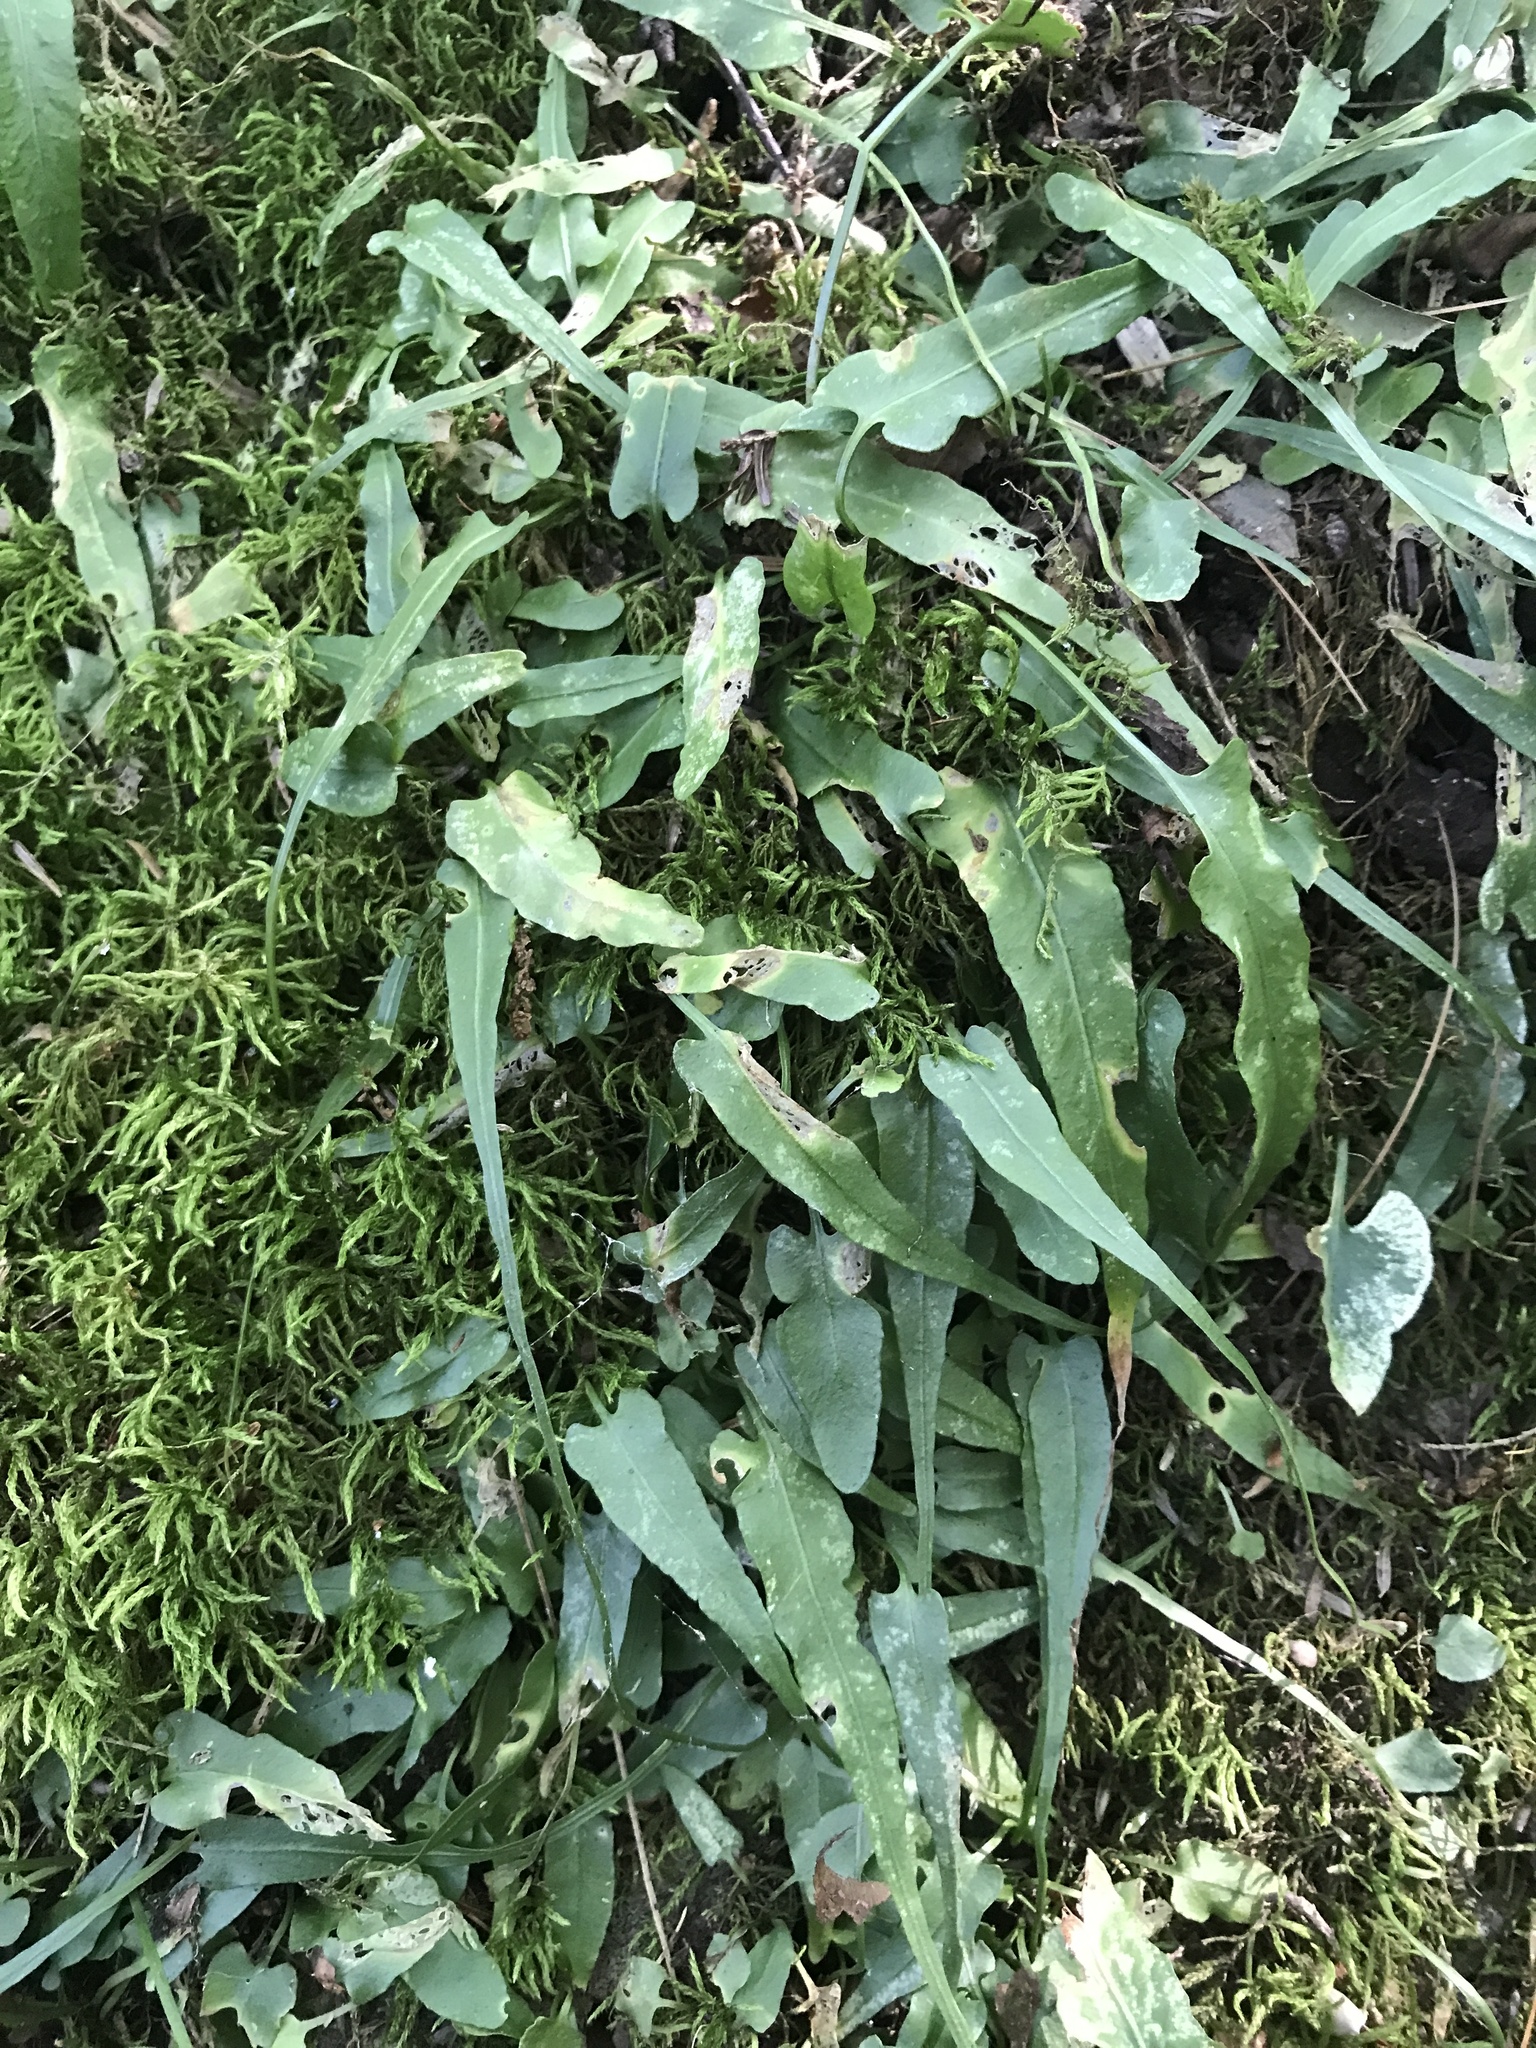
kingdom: Plantae
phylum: Tracheophyta
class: Polypodiopsida
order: Polypodiales
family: Aspleniaceae
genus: Asplenium
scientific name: Asplenium rhizophyllum
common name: Walking fern
